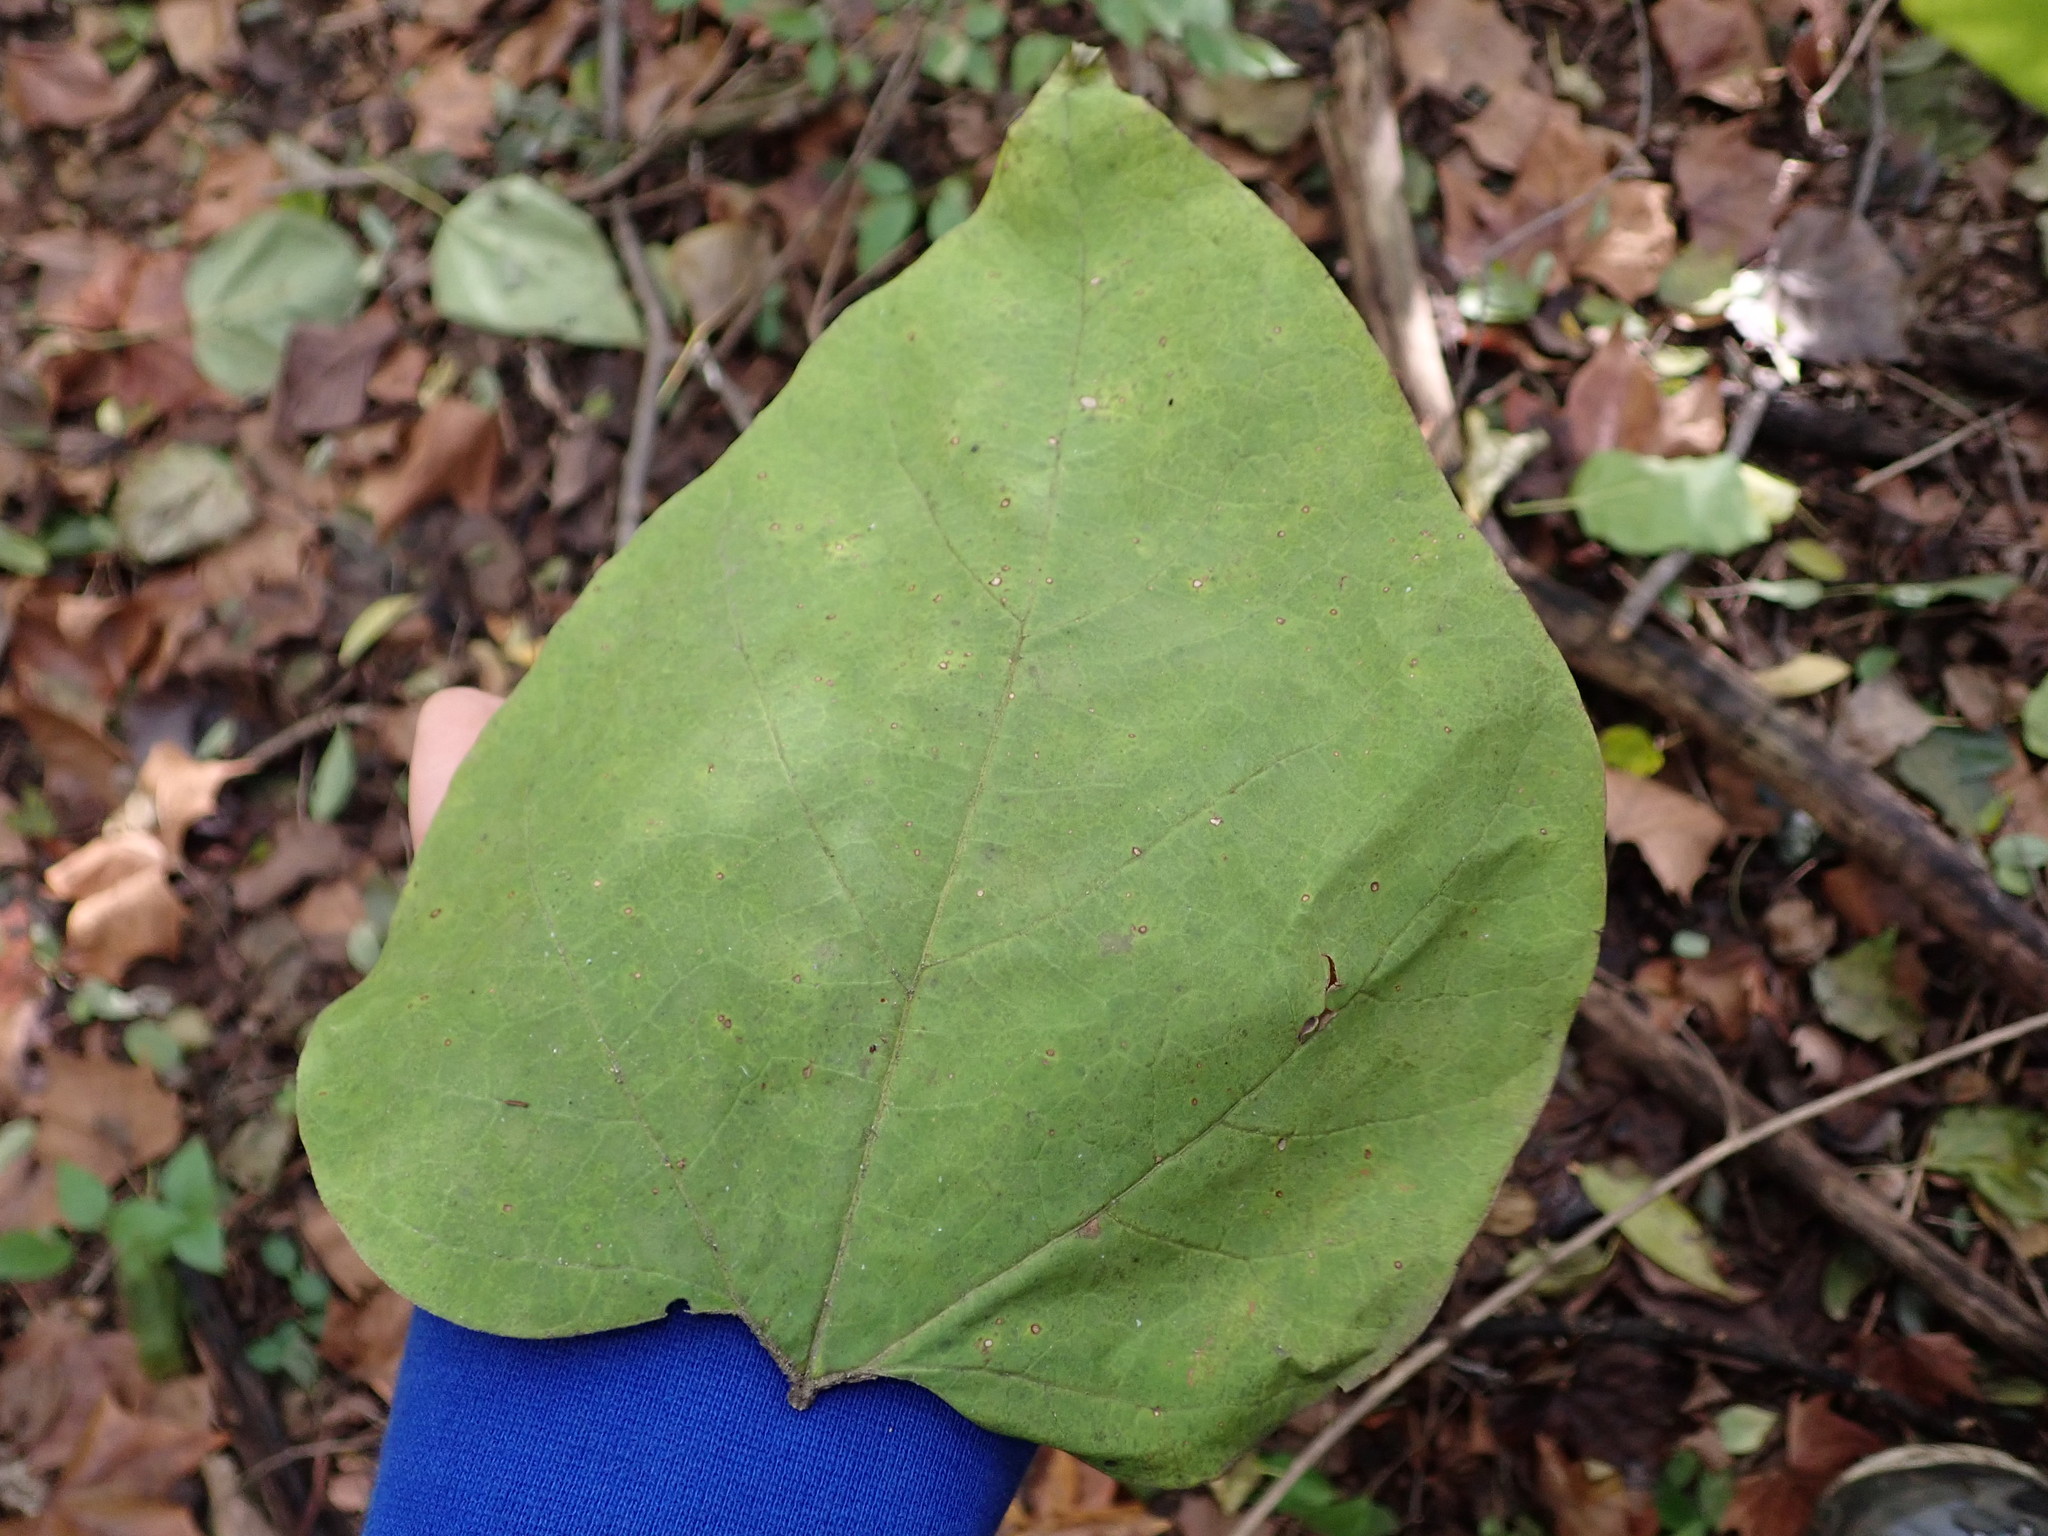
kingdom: Plantae
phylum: Tracheophyta
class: Magnoliopsida
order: Lamiales
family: Bignoniaceae
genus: Catalpa
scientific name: Catalpa speciosa
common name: Northern catalpa
